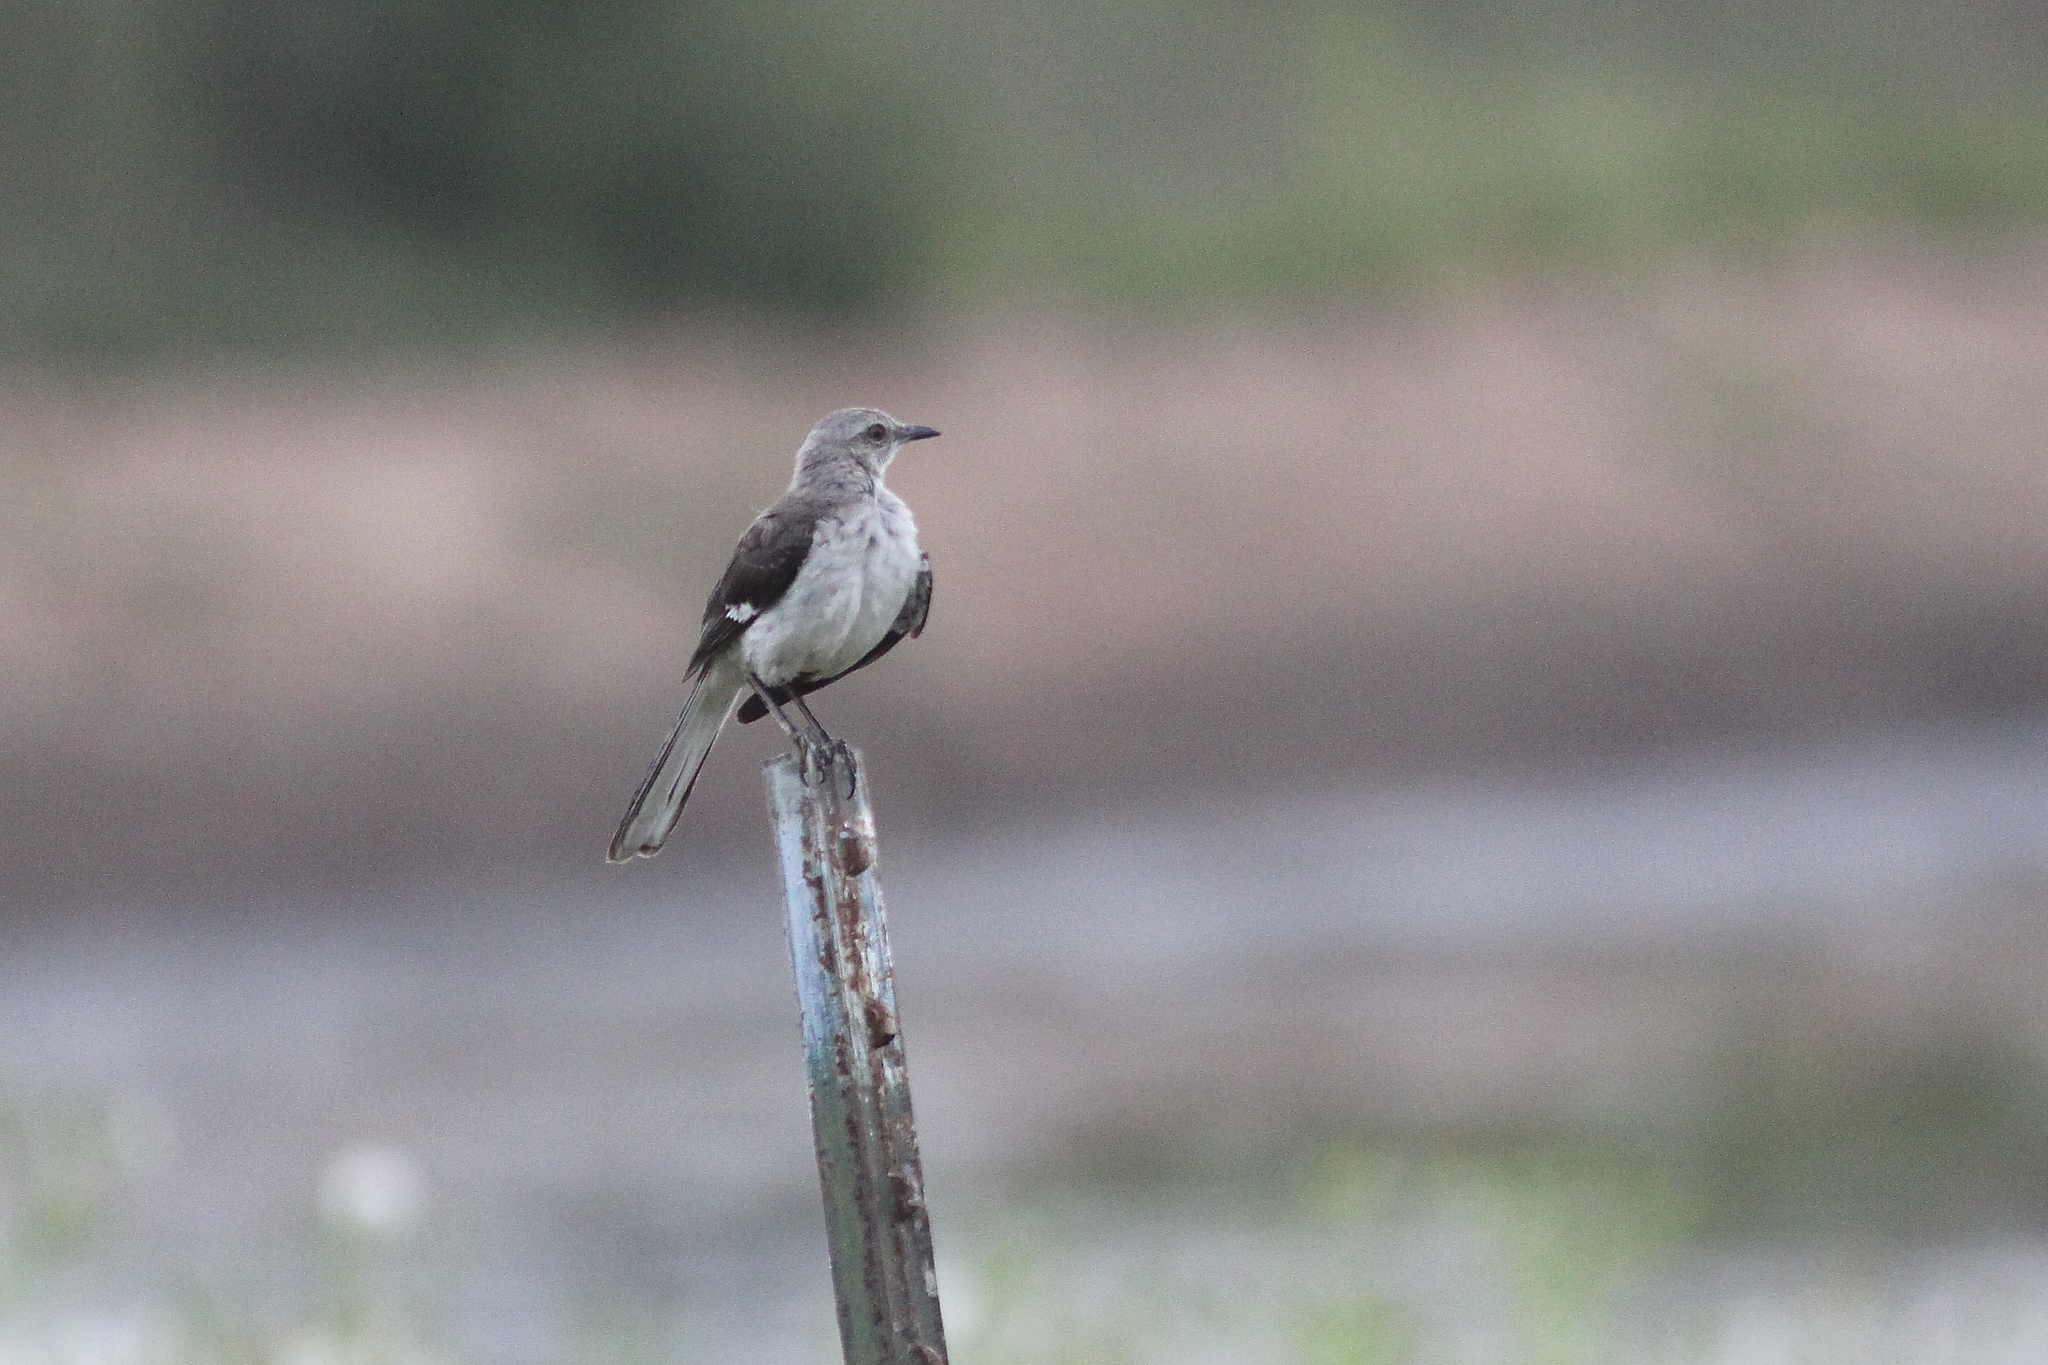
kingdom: Animalia
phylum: Chordata
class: Aves
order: Passeriformes
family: Mimidae
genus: Mimus
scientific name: Mimus polyglottos
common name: Northern mockingbird
